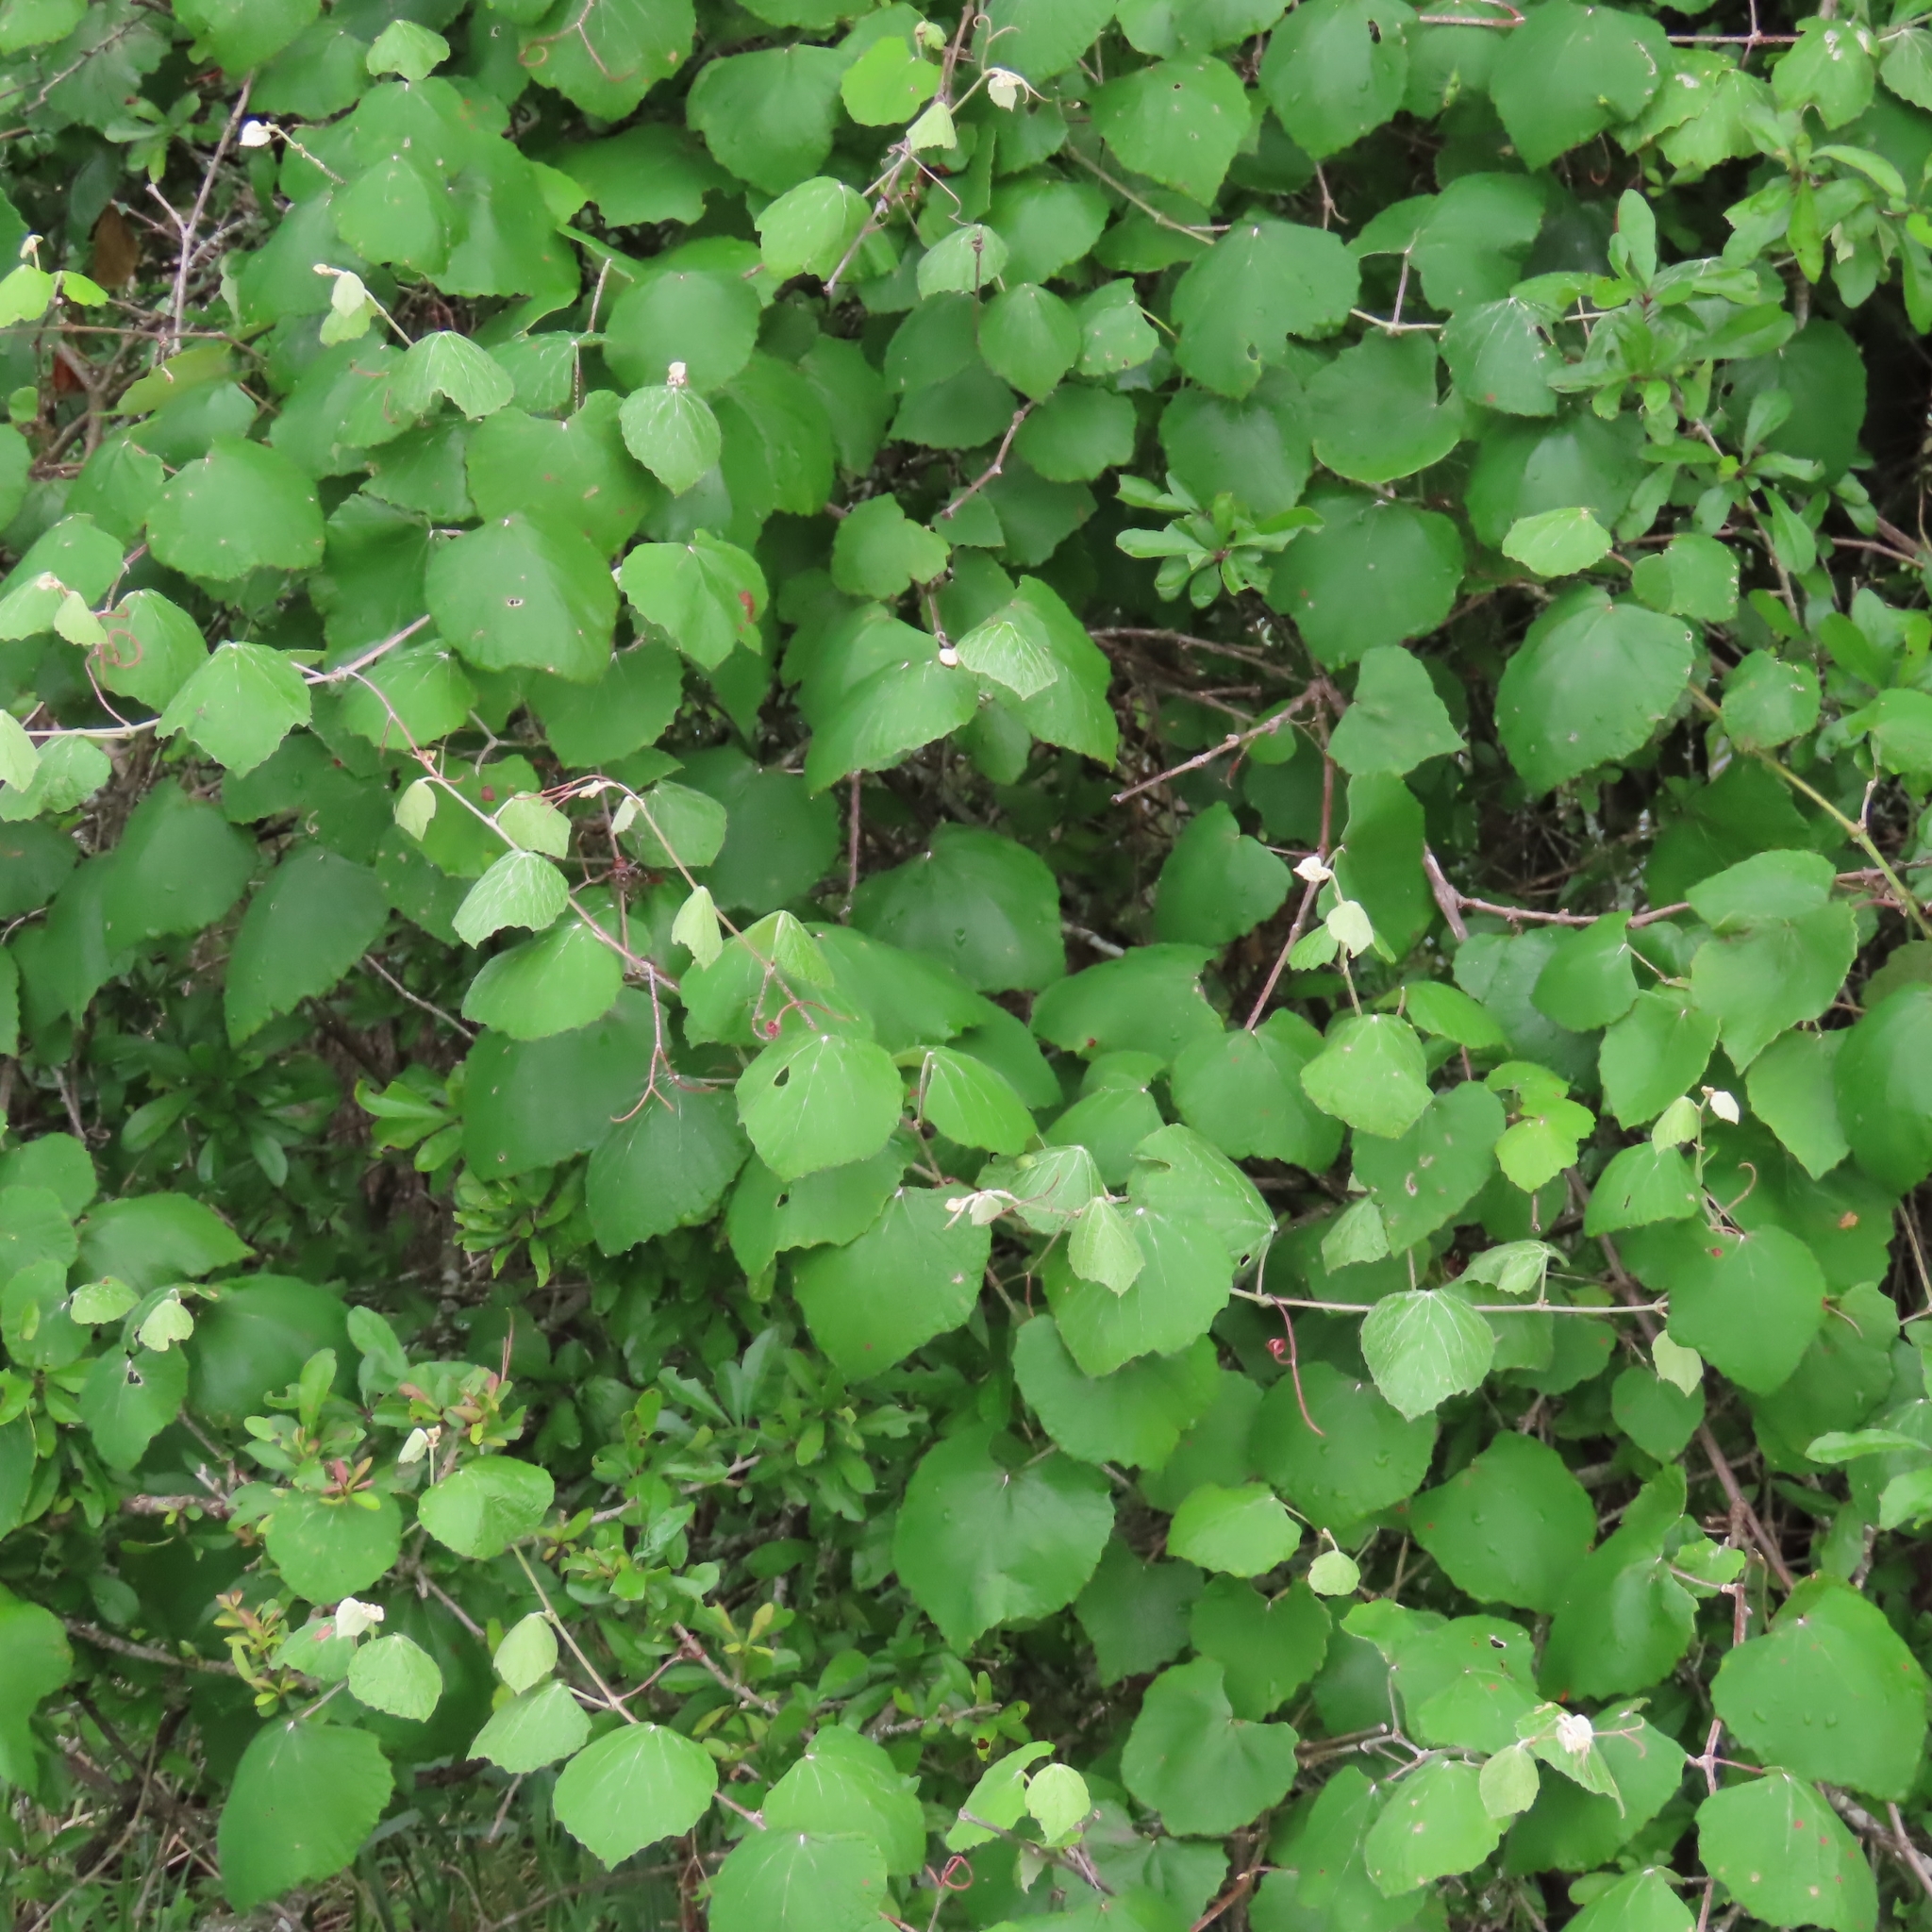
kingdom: Plantae
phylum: Tracheophyta
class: Magnoliopsida
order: Vitales
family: Vitaceae
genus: Vitis
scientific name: Vitis mustangensis
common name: Mustang grape
